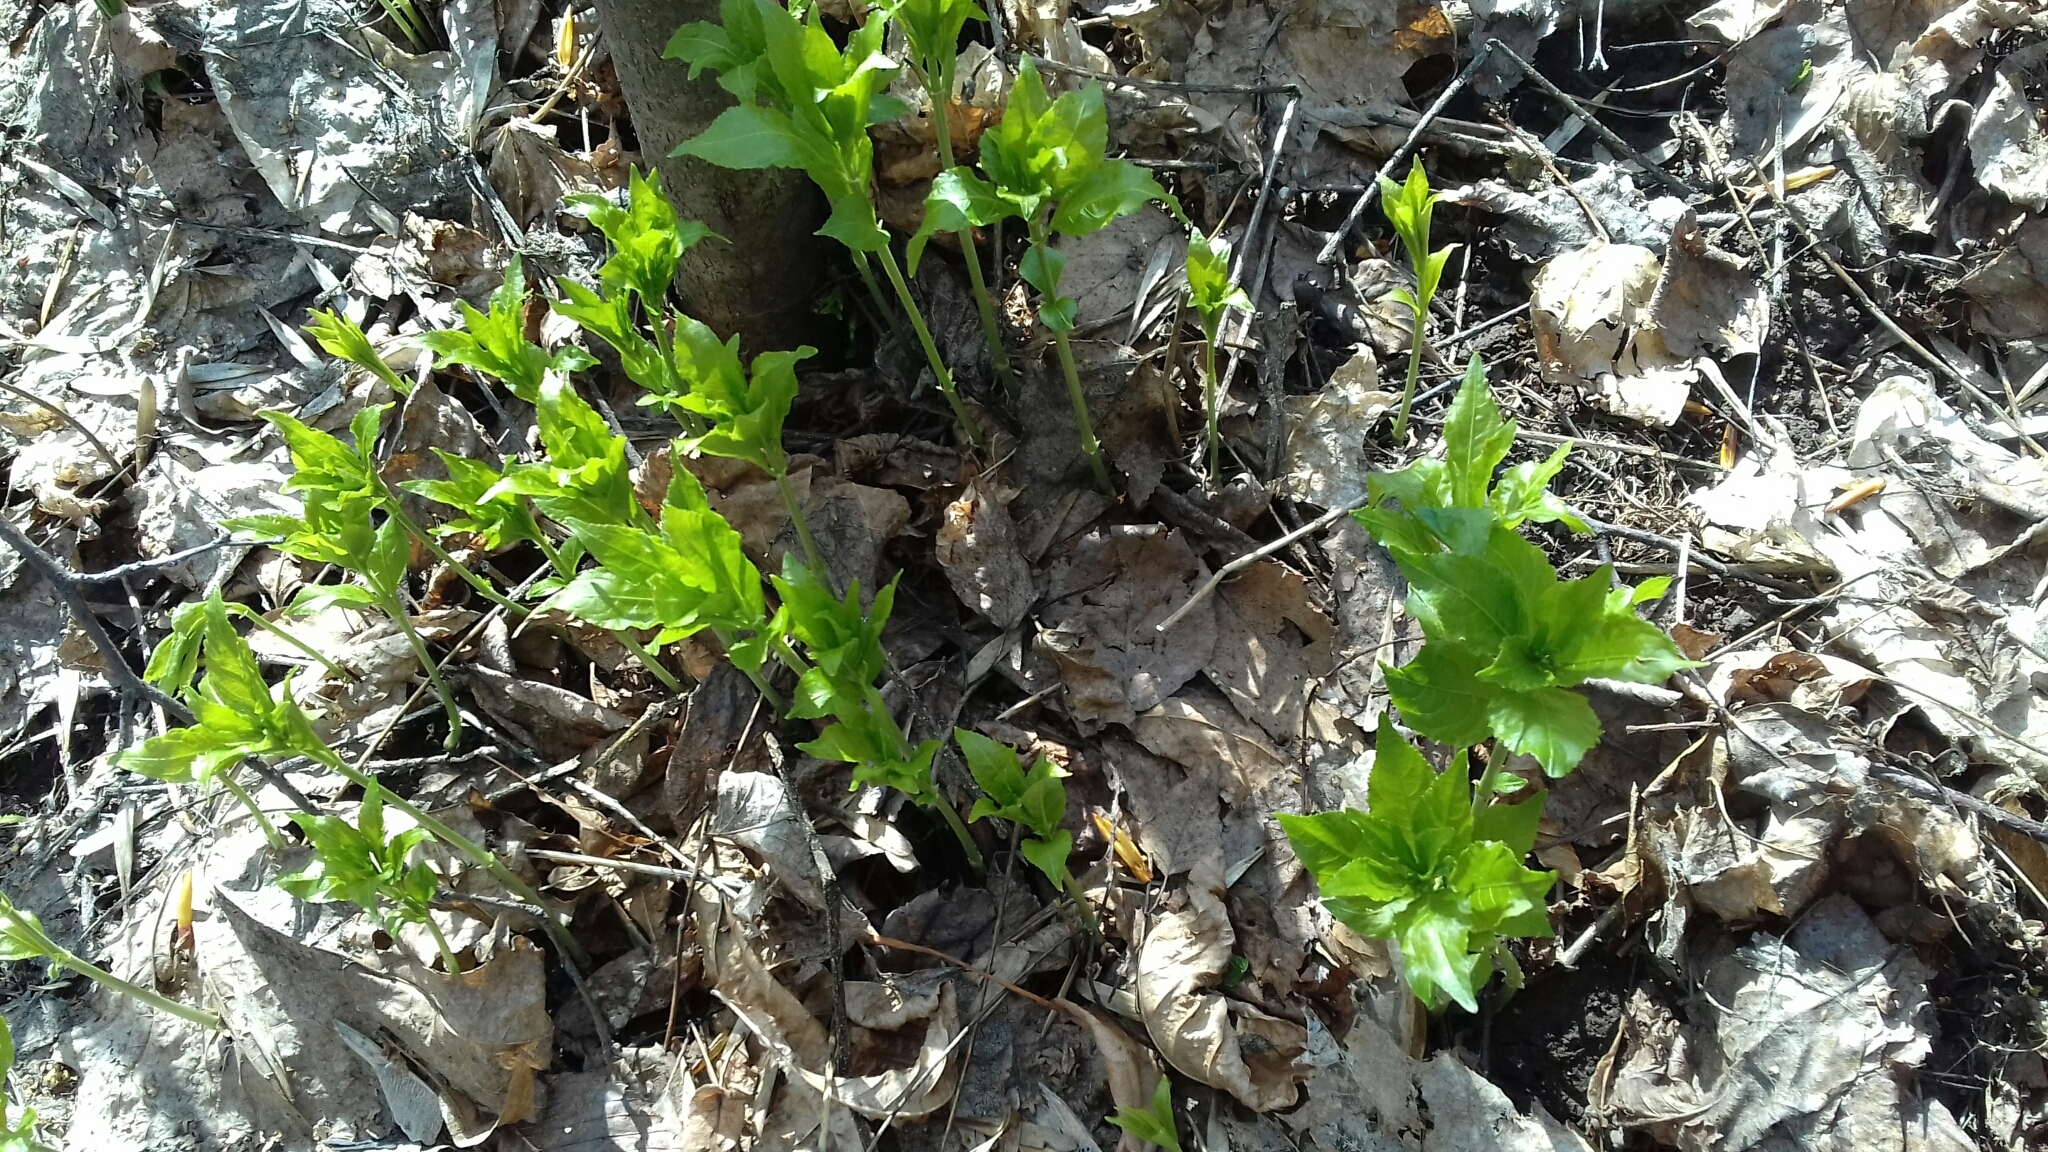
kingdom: Plantae
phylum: Tracheophyta
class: Magnoliopsida
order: Malpighiales
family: Euphorbiaceae
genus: Mercurialis
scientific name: Mercurialis perennis
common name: Dog mercury
